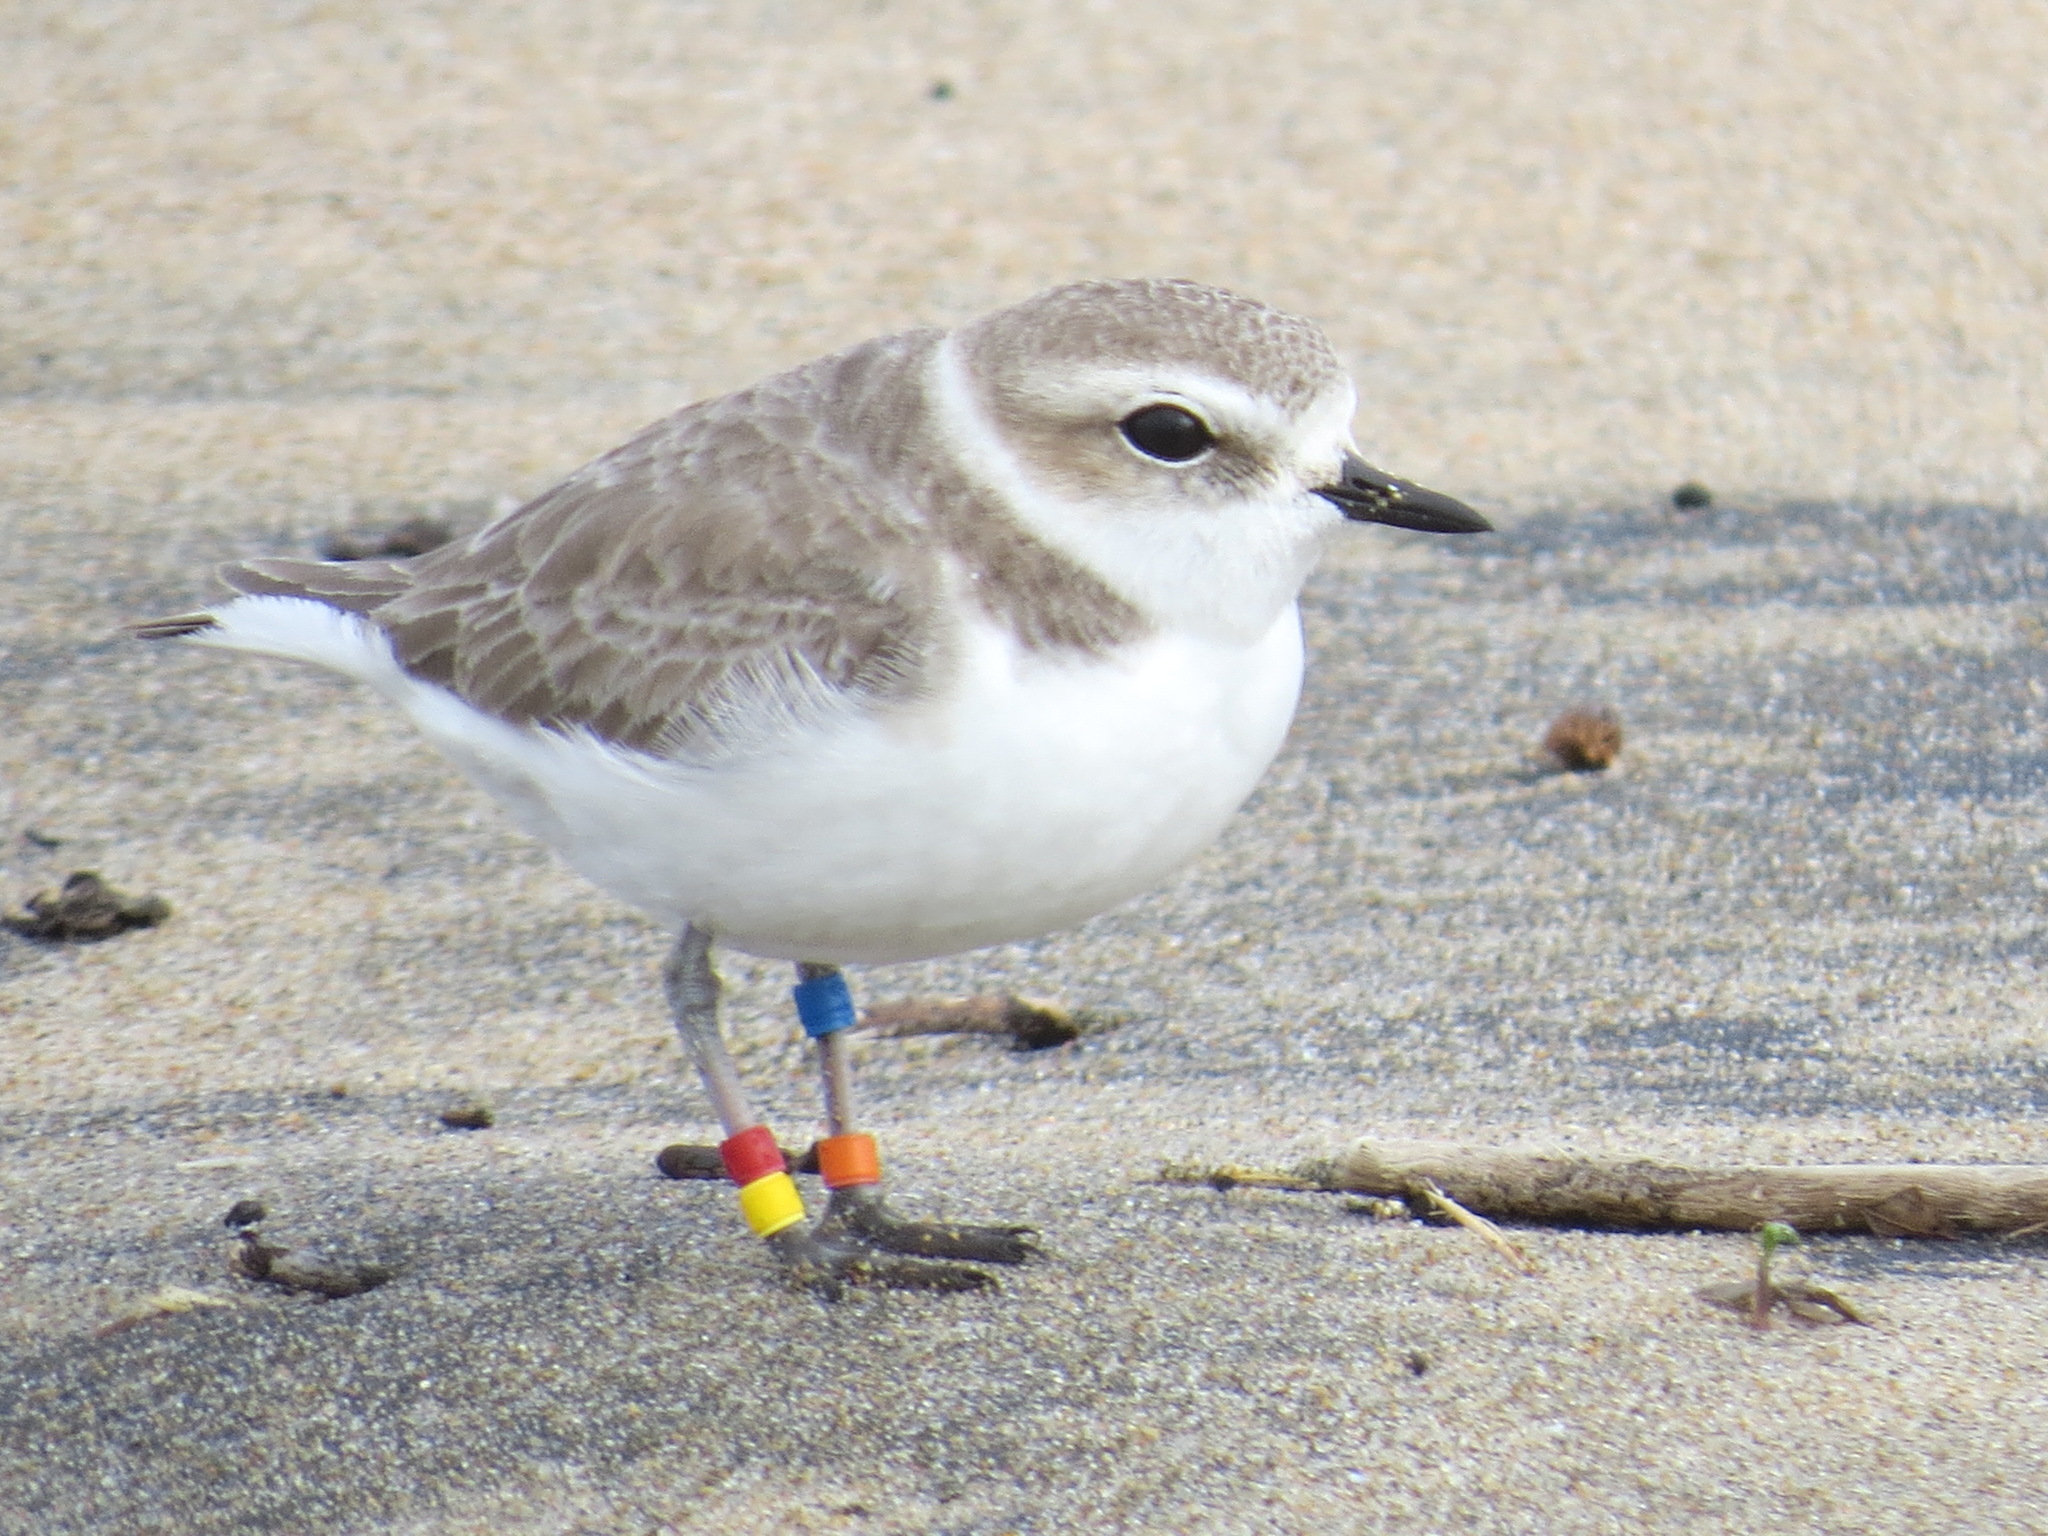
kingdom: Animalia
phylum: Chordata
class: Aves
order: Charadriiformes
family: Charadriidae
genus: Anarhynchus
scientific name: Anarhynchus
